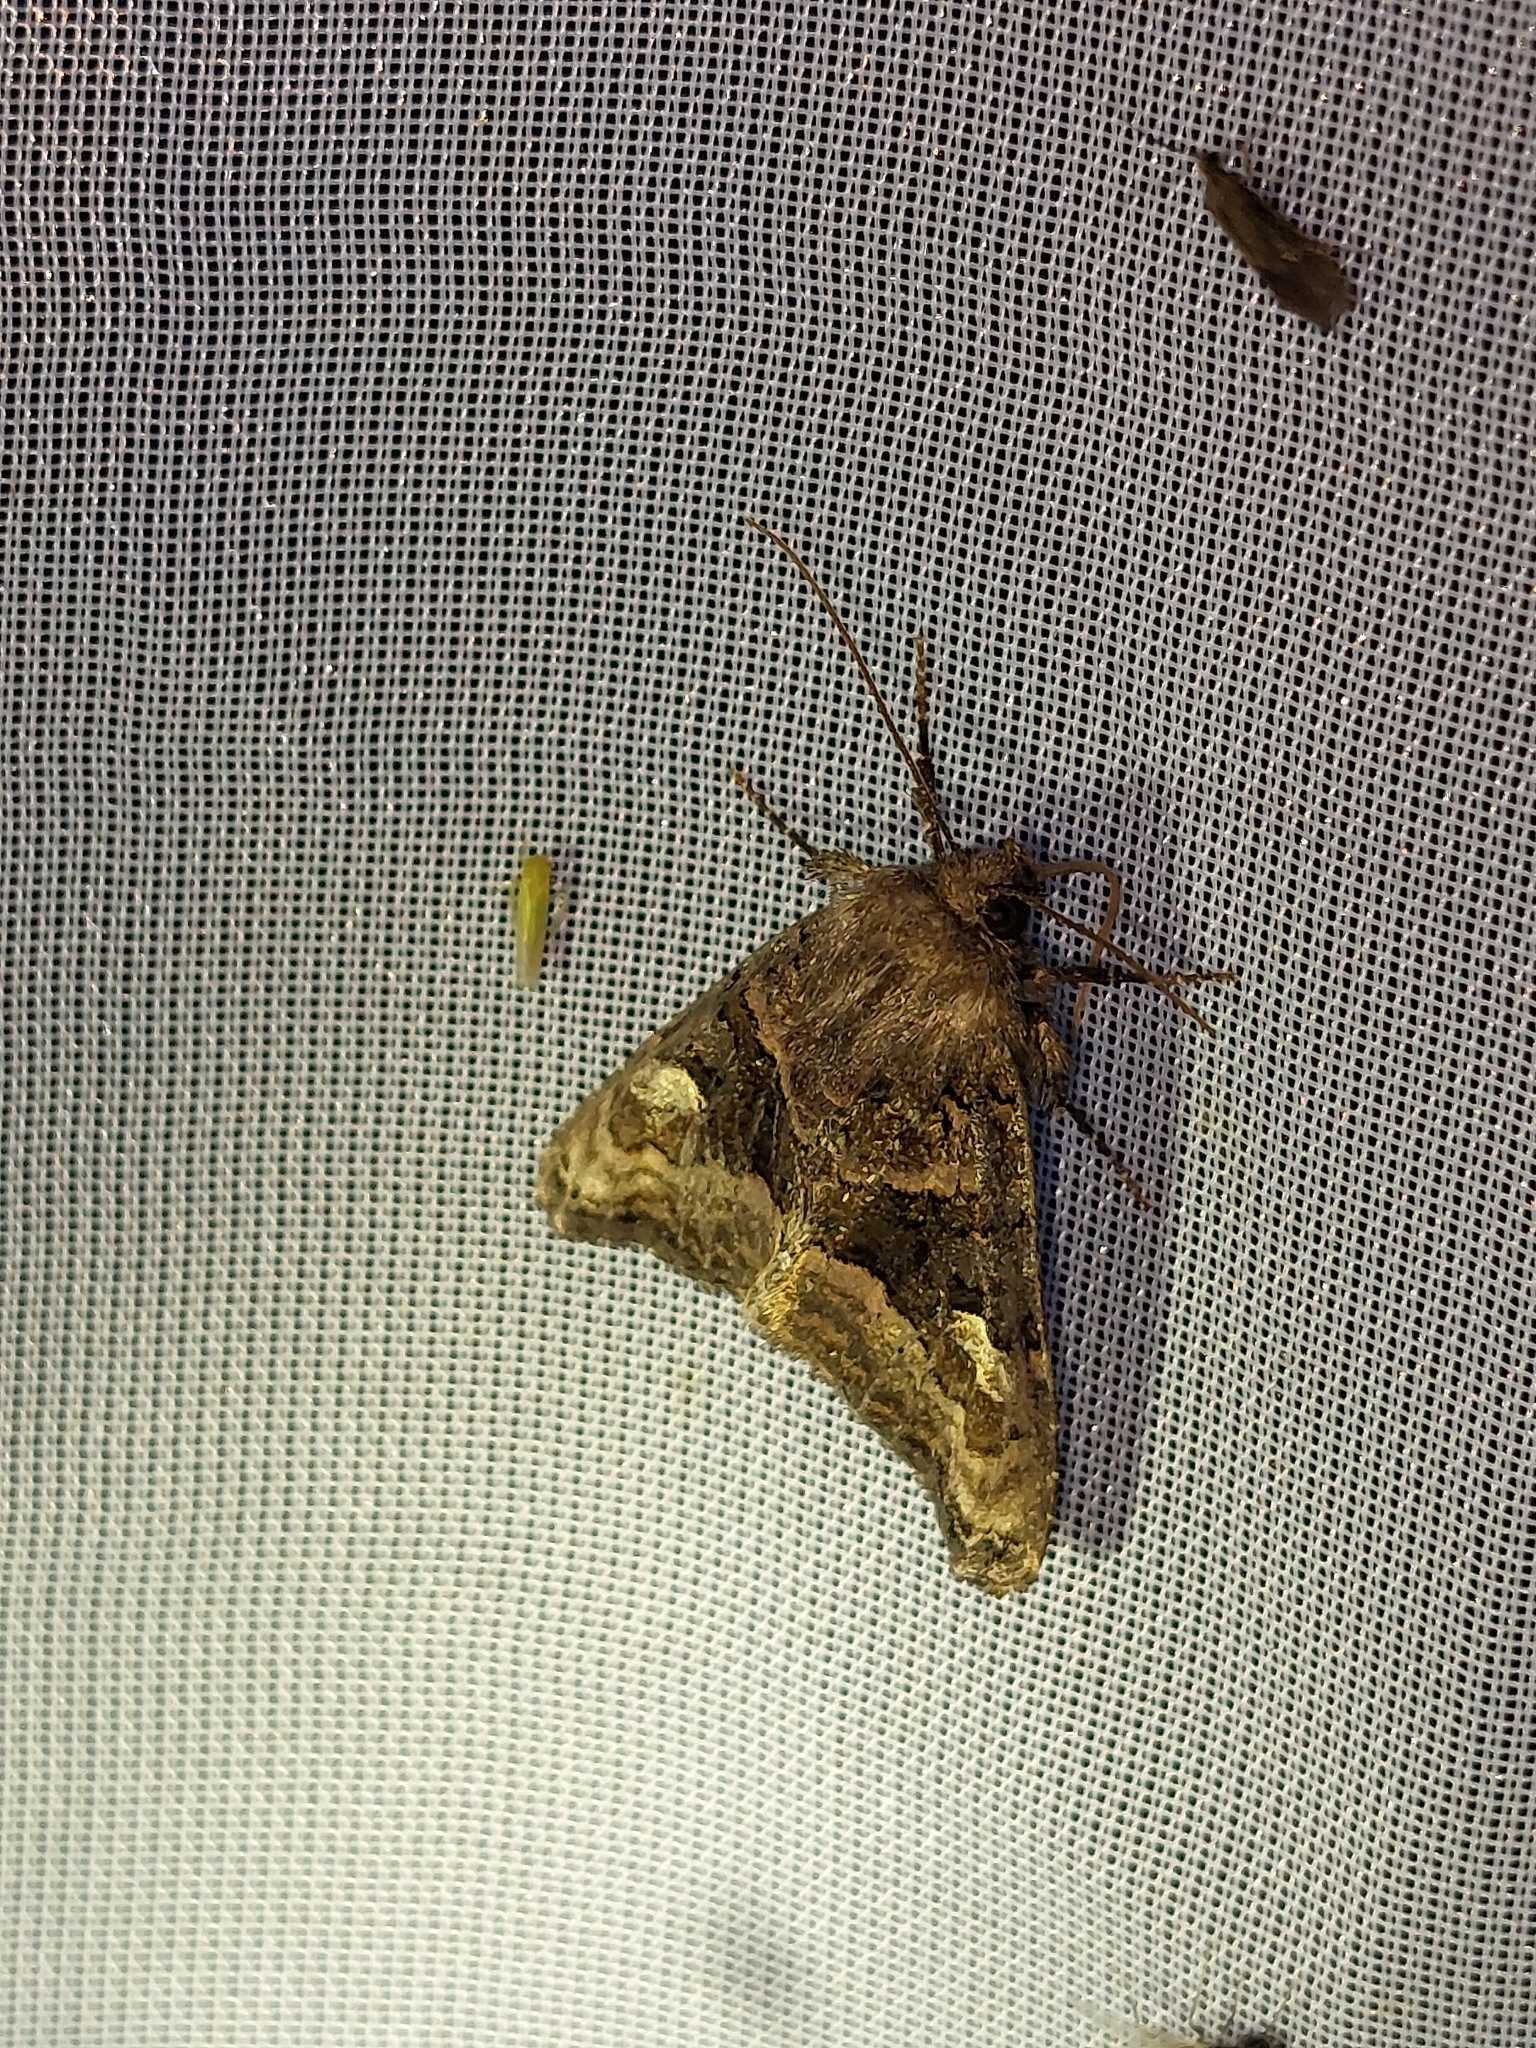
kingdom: Animalia
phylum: Arthropoda
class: Insecta
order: Lepidoptera
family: Noctuidae
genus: Euplexia
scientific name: Euplexia lucipara
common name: Small angle shades
